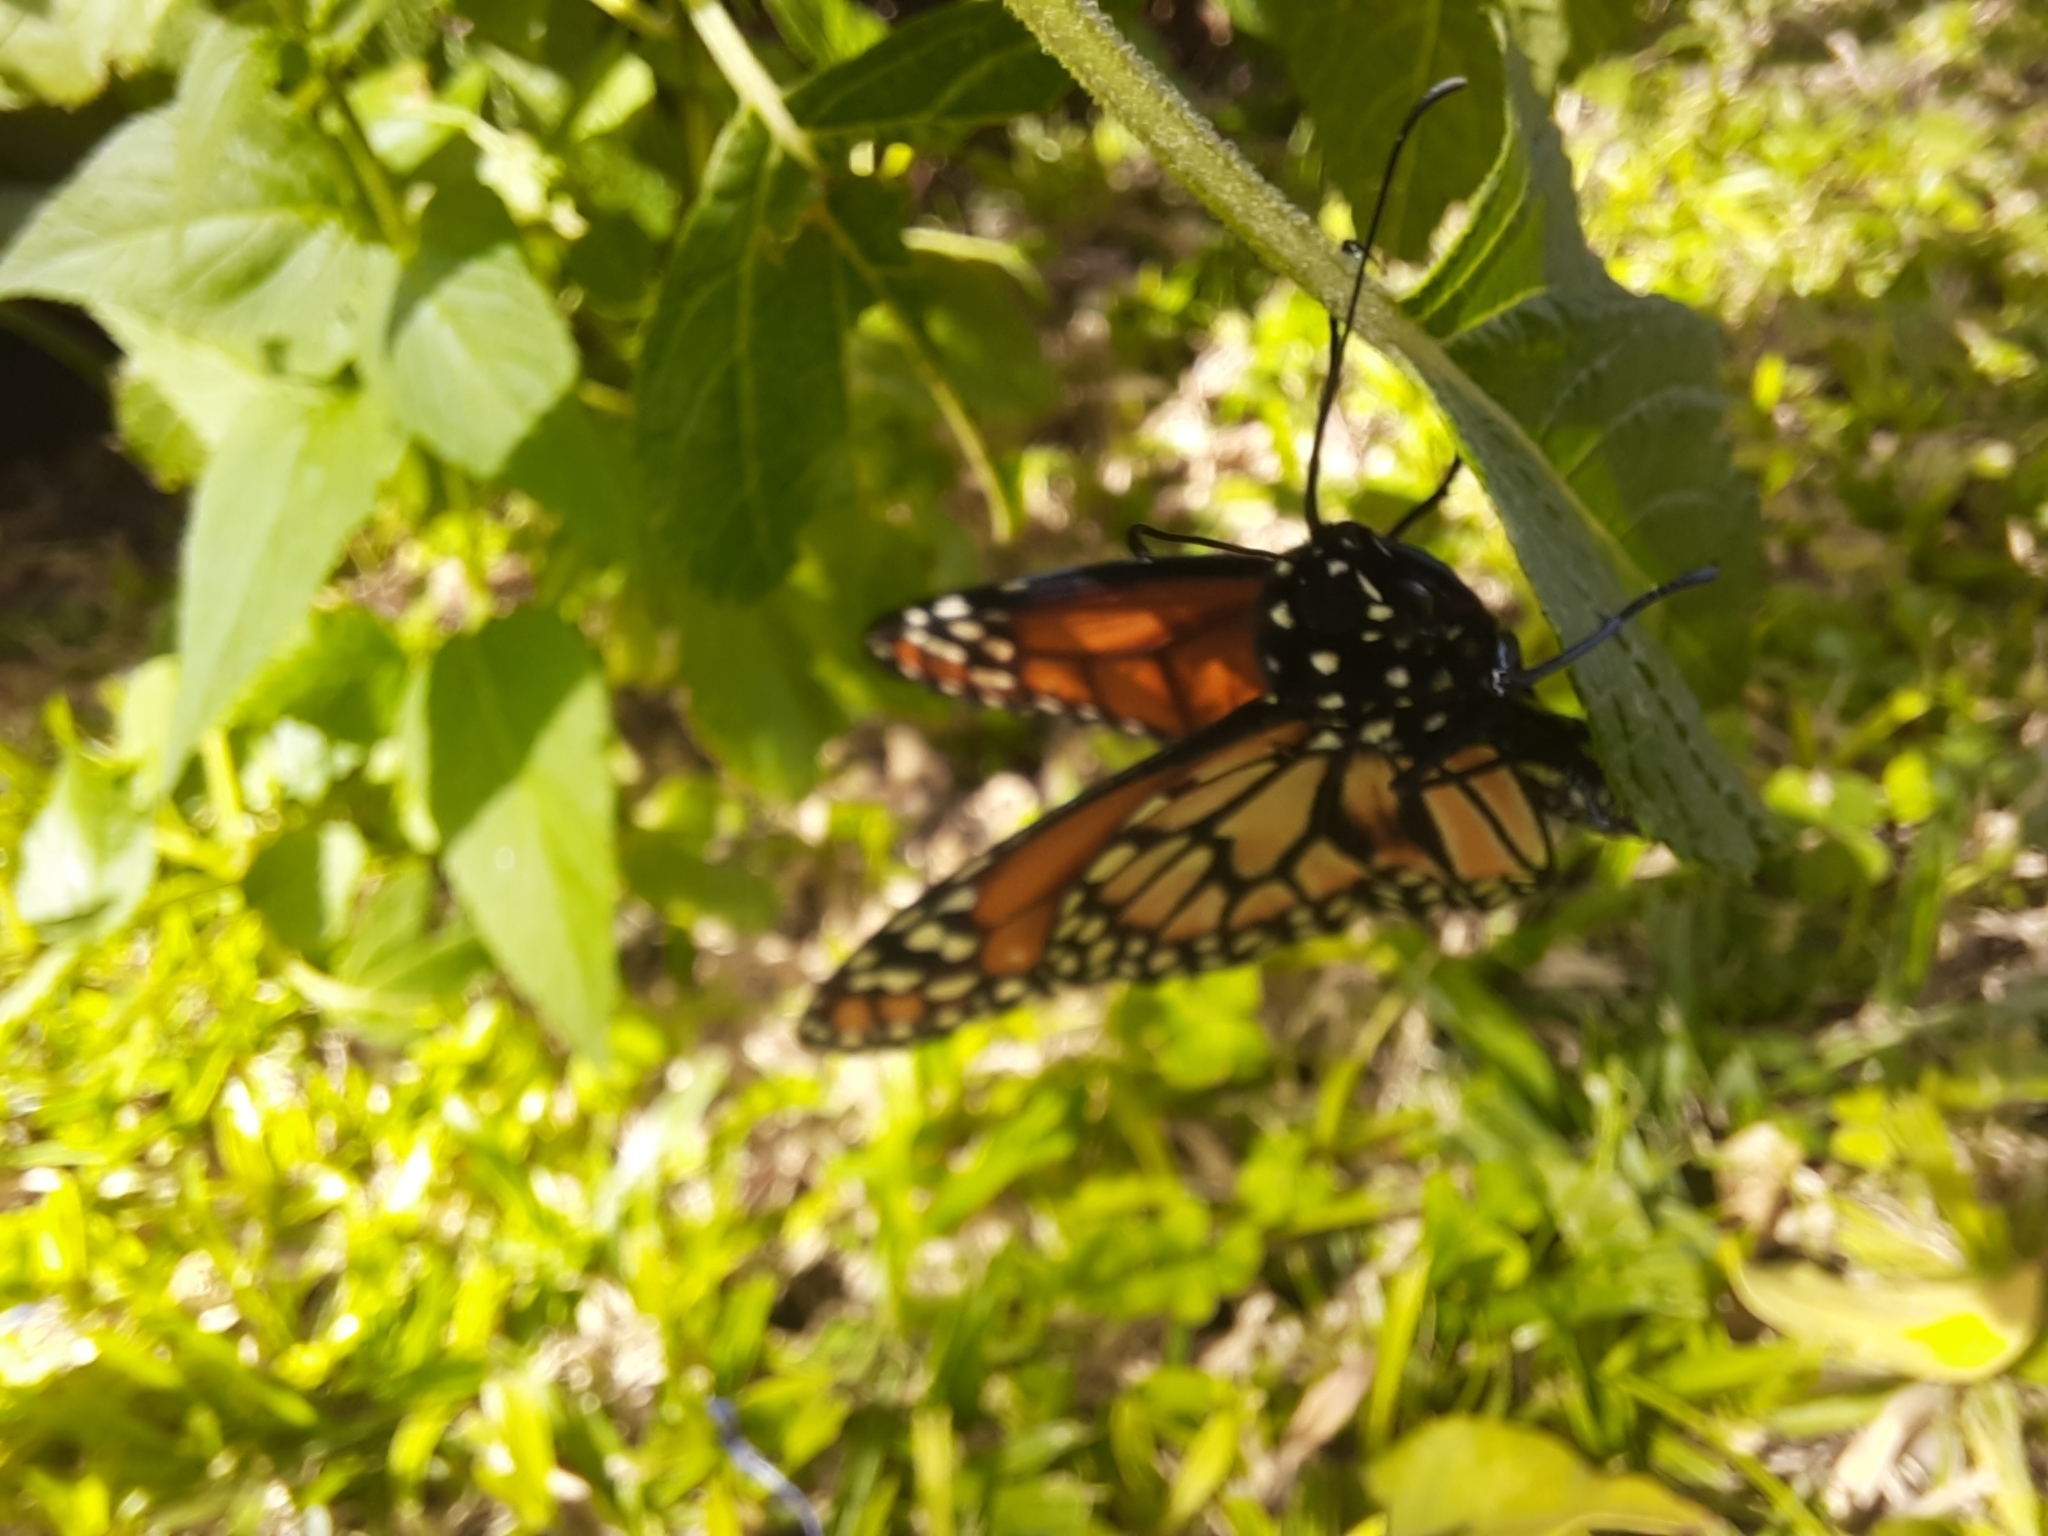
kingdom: Animalia
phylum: Arthropoda
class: Insecta
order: Lepidoptera
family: Nymphalidae
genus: Danaus
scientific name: Danaus erippus
